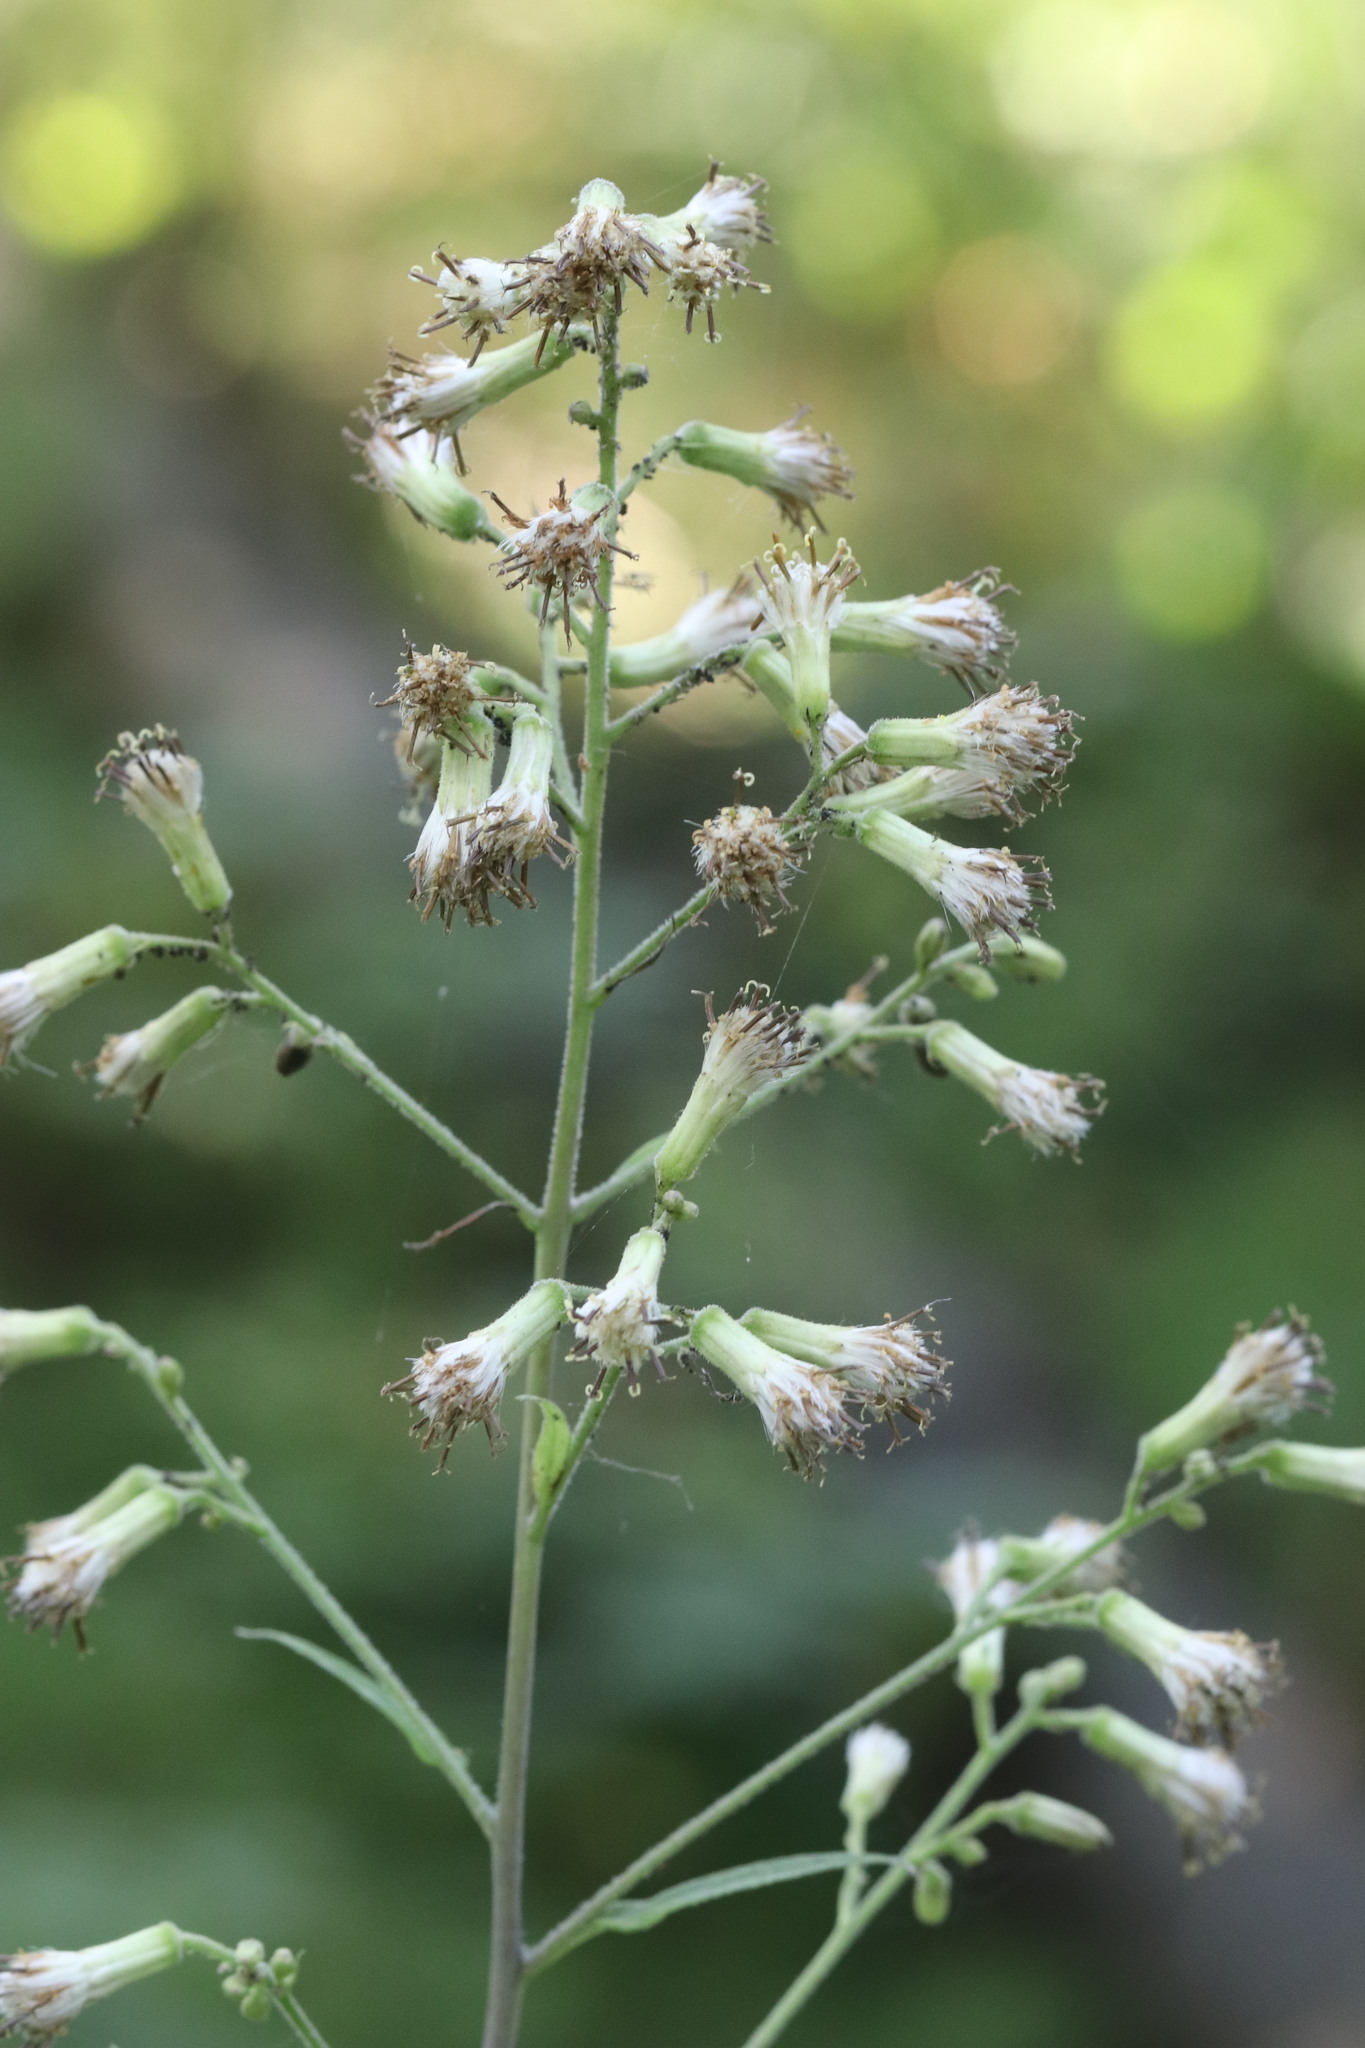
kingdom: Plantae
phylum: Tracheophyta
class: Magnoliopsida
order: Asterales
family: Asteraceae
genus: Parasenecio
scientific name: Parasenecio hastatus
